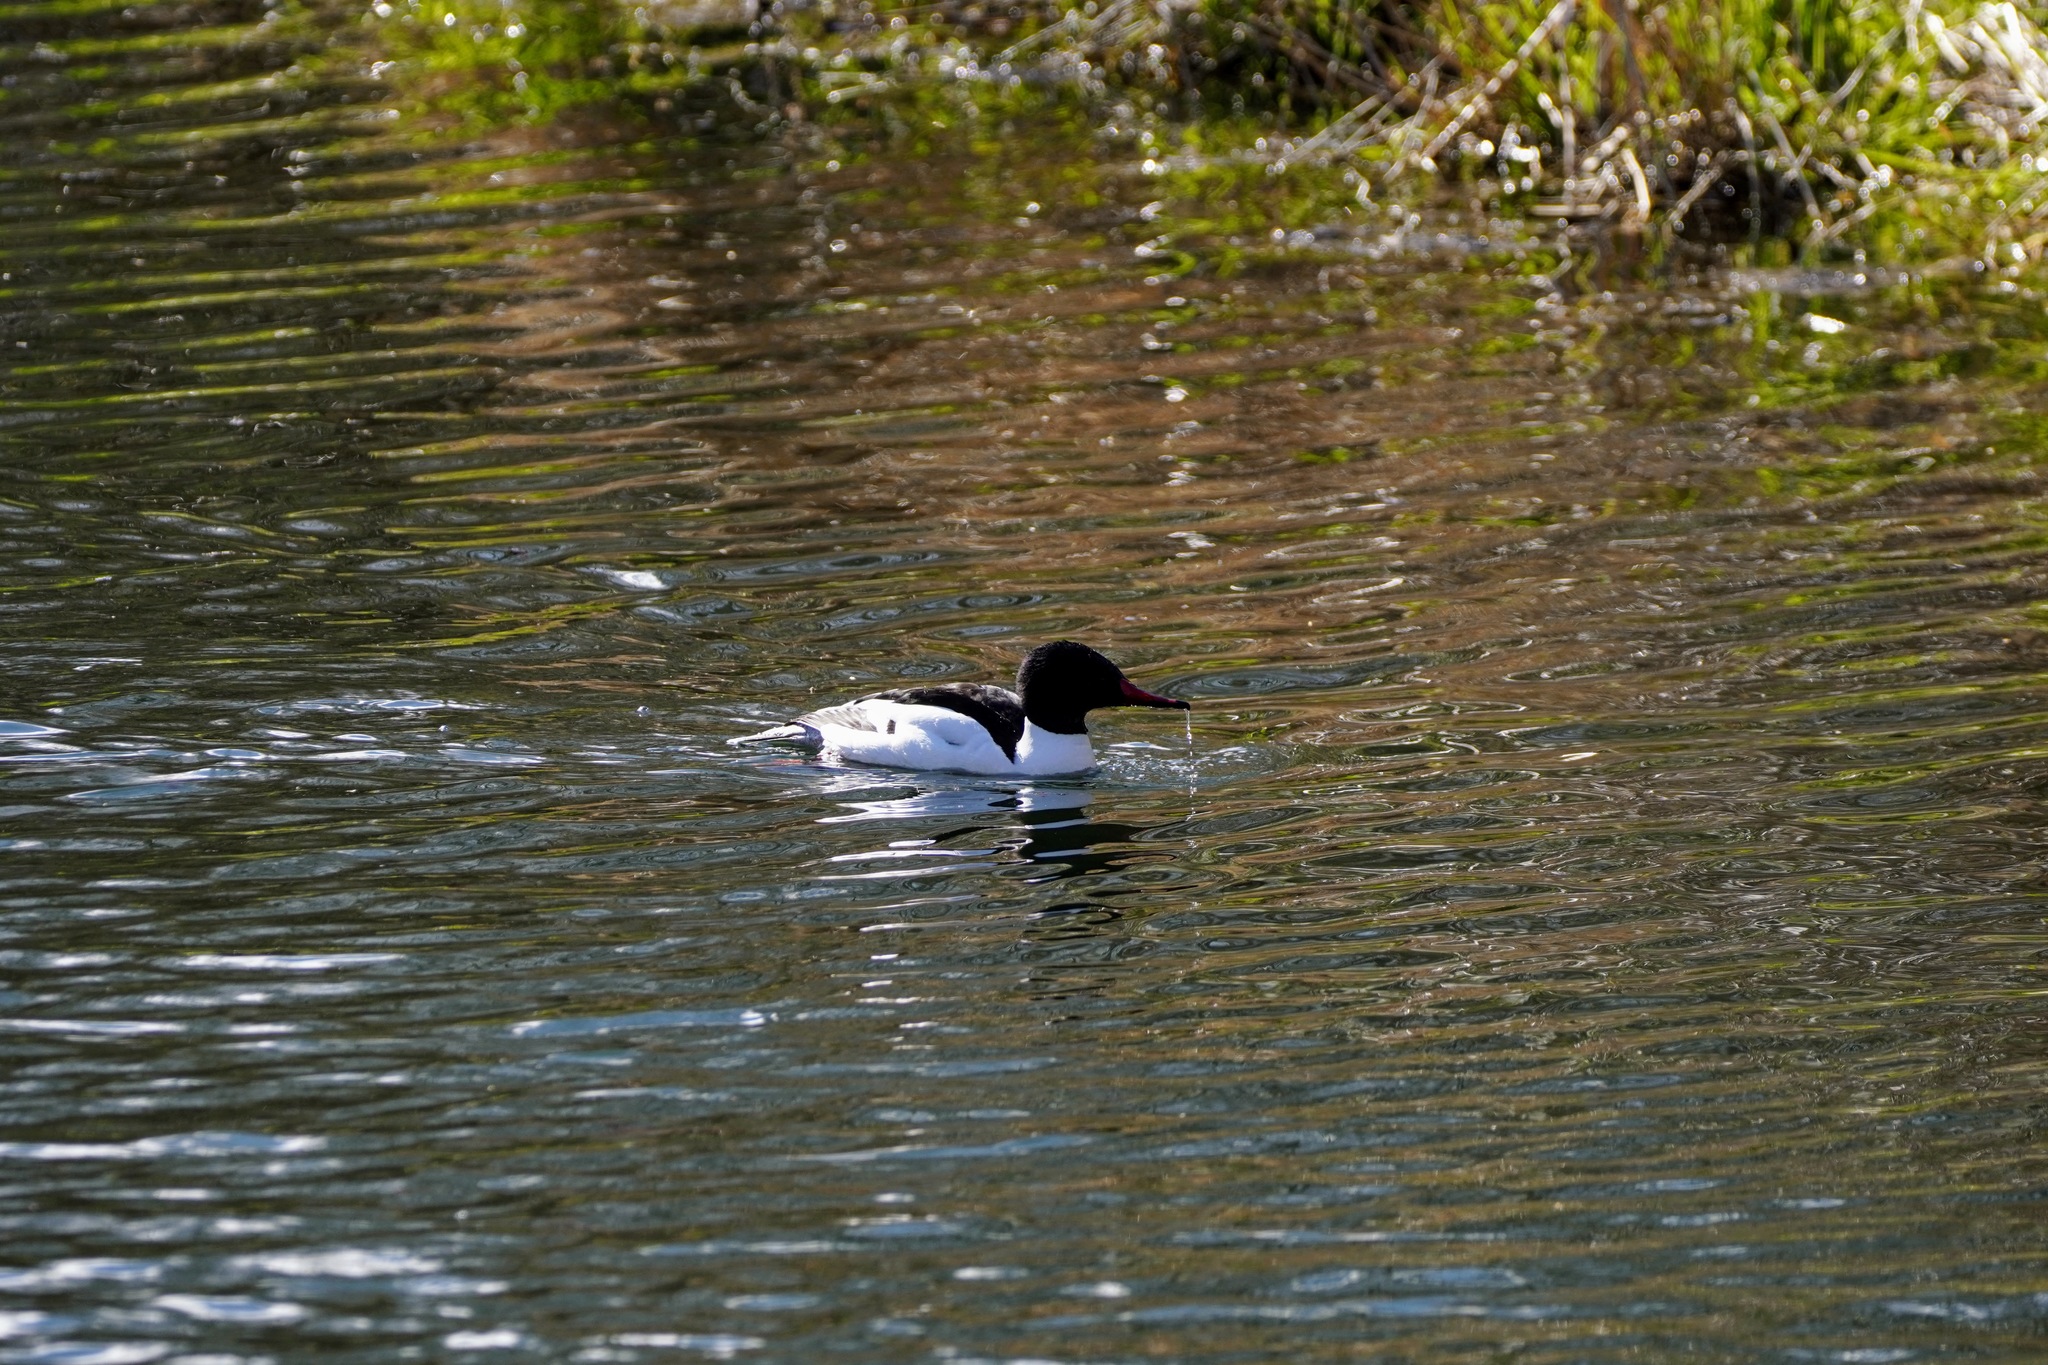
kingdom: Animalia
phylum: Chordata
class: Aves
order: Anseriformes
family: Anatidae
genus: Mergus
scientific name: Mergus merganser
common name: Common merganser
